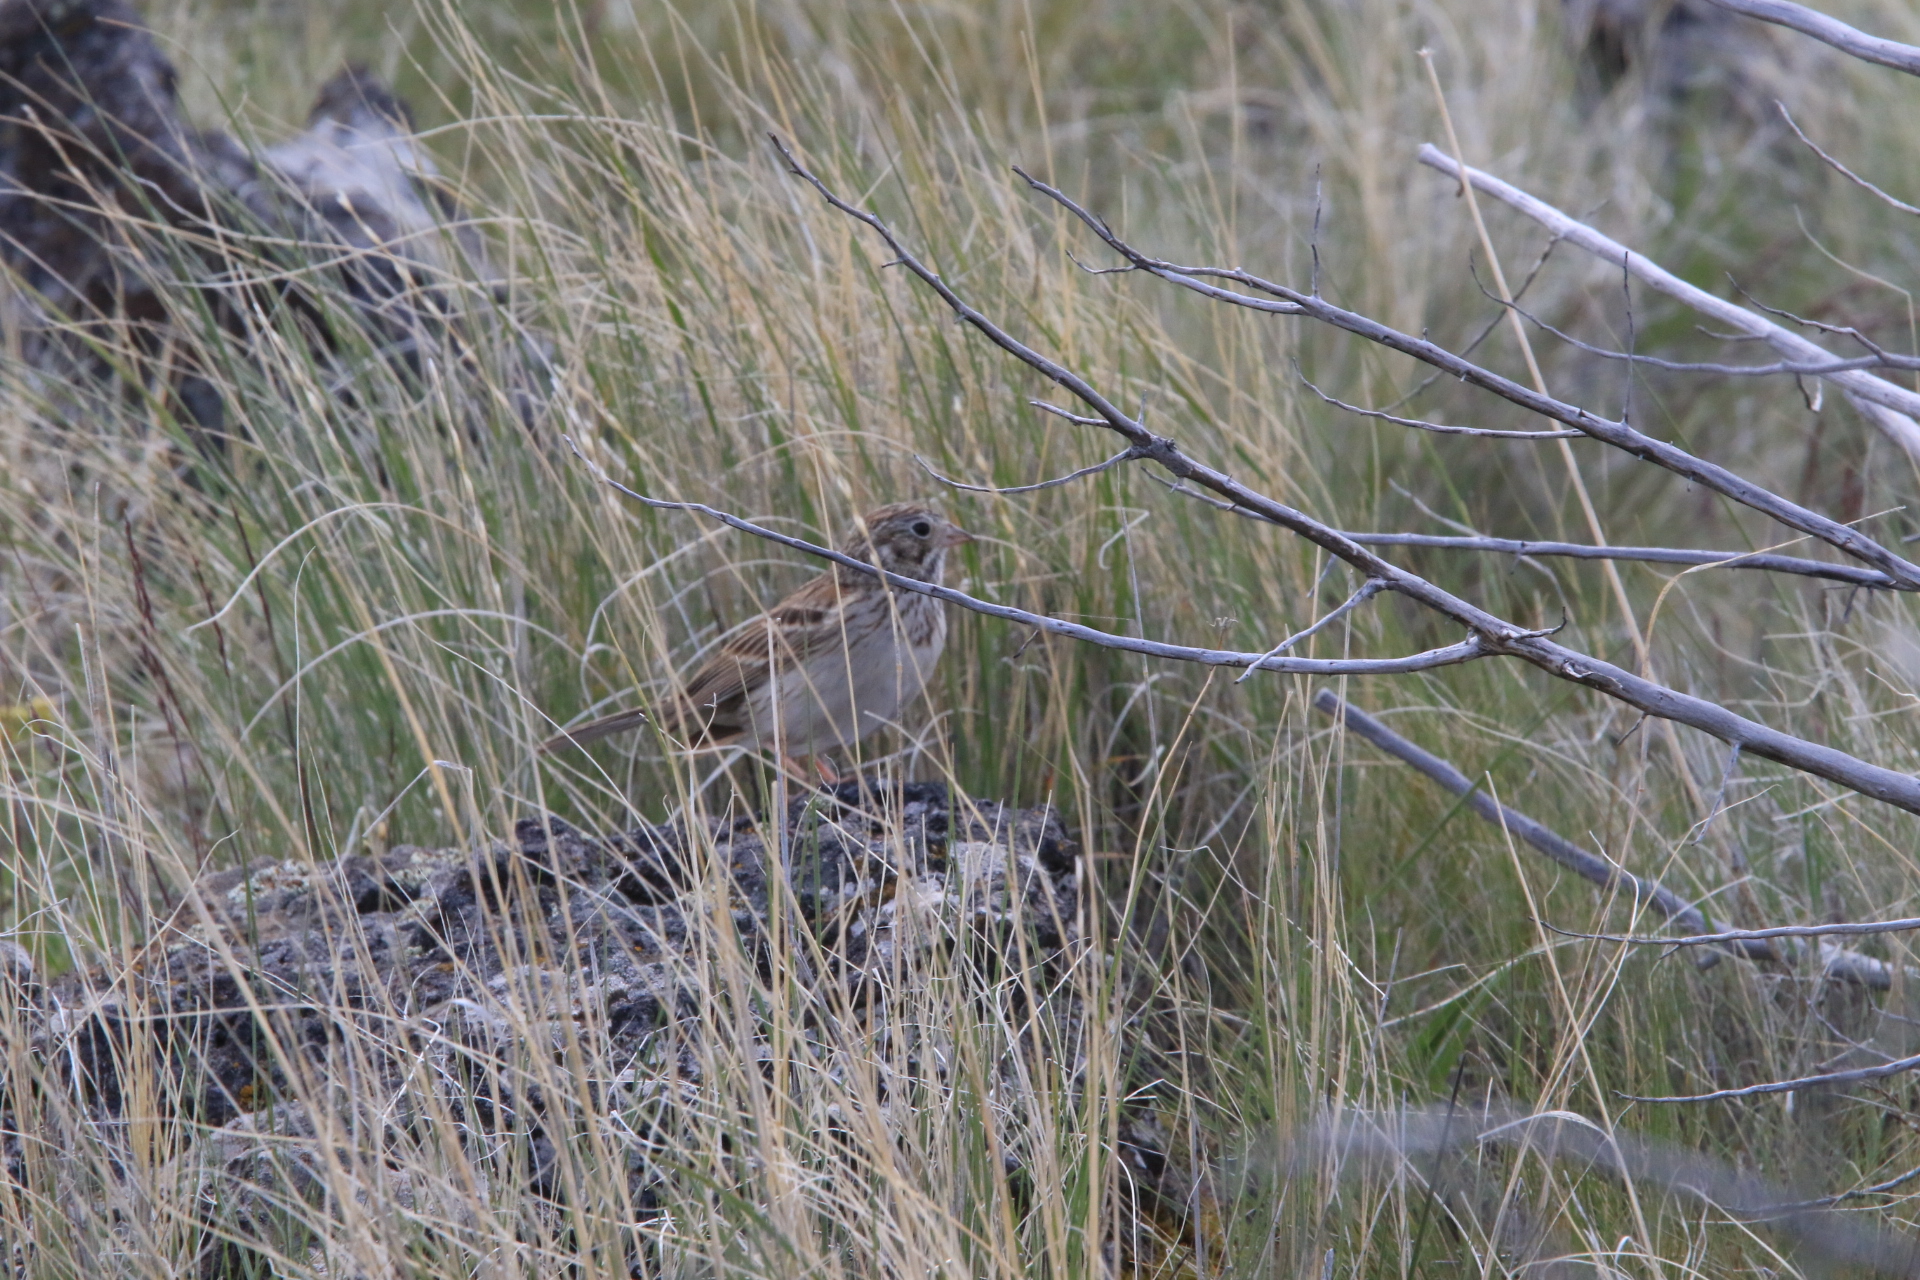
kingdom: Animalia
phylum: Chordata
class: Aves
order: Passeriformes
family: Passerellidae
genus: Pooecetes
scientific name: Pooecetes gramineus
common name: Vesper sparrow
